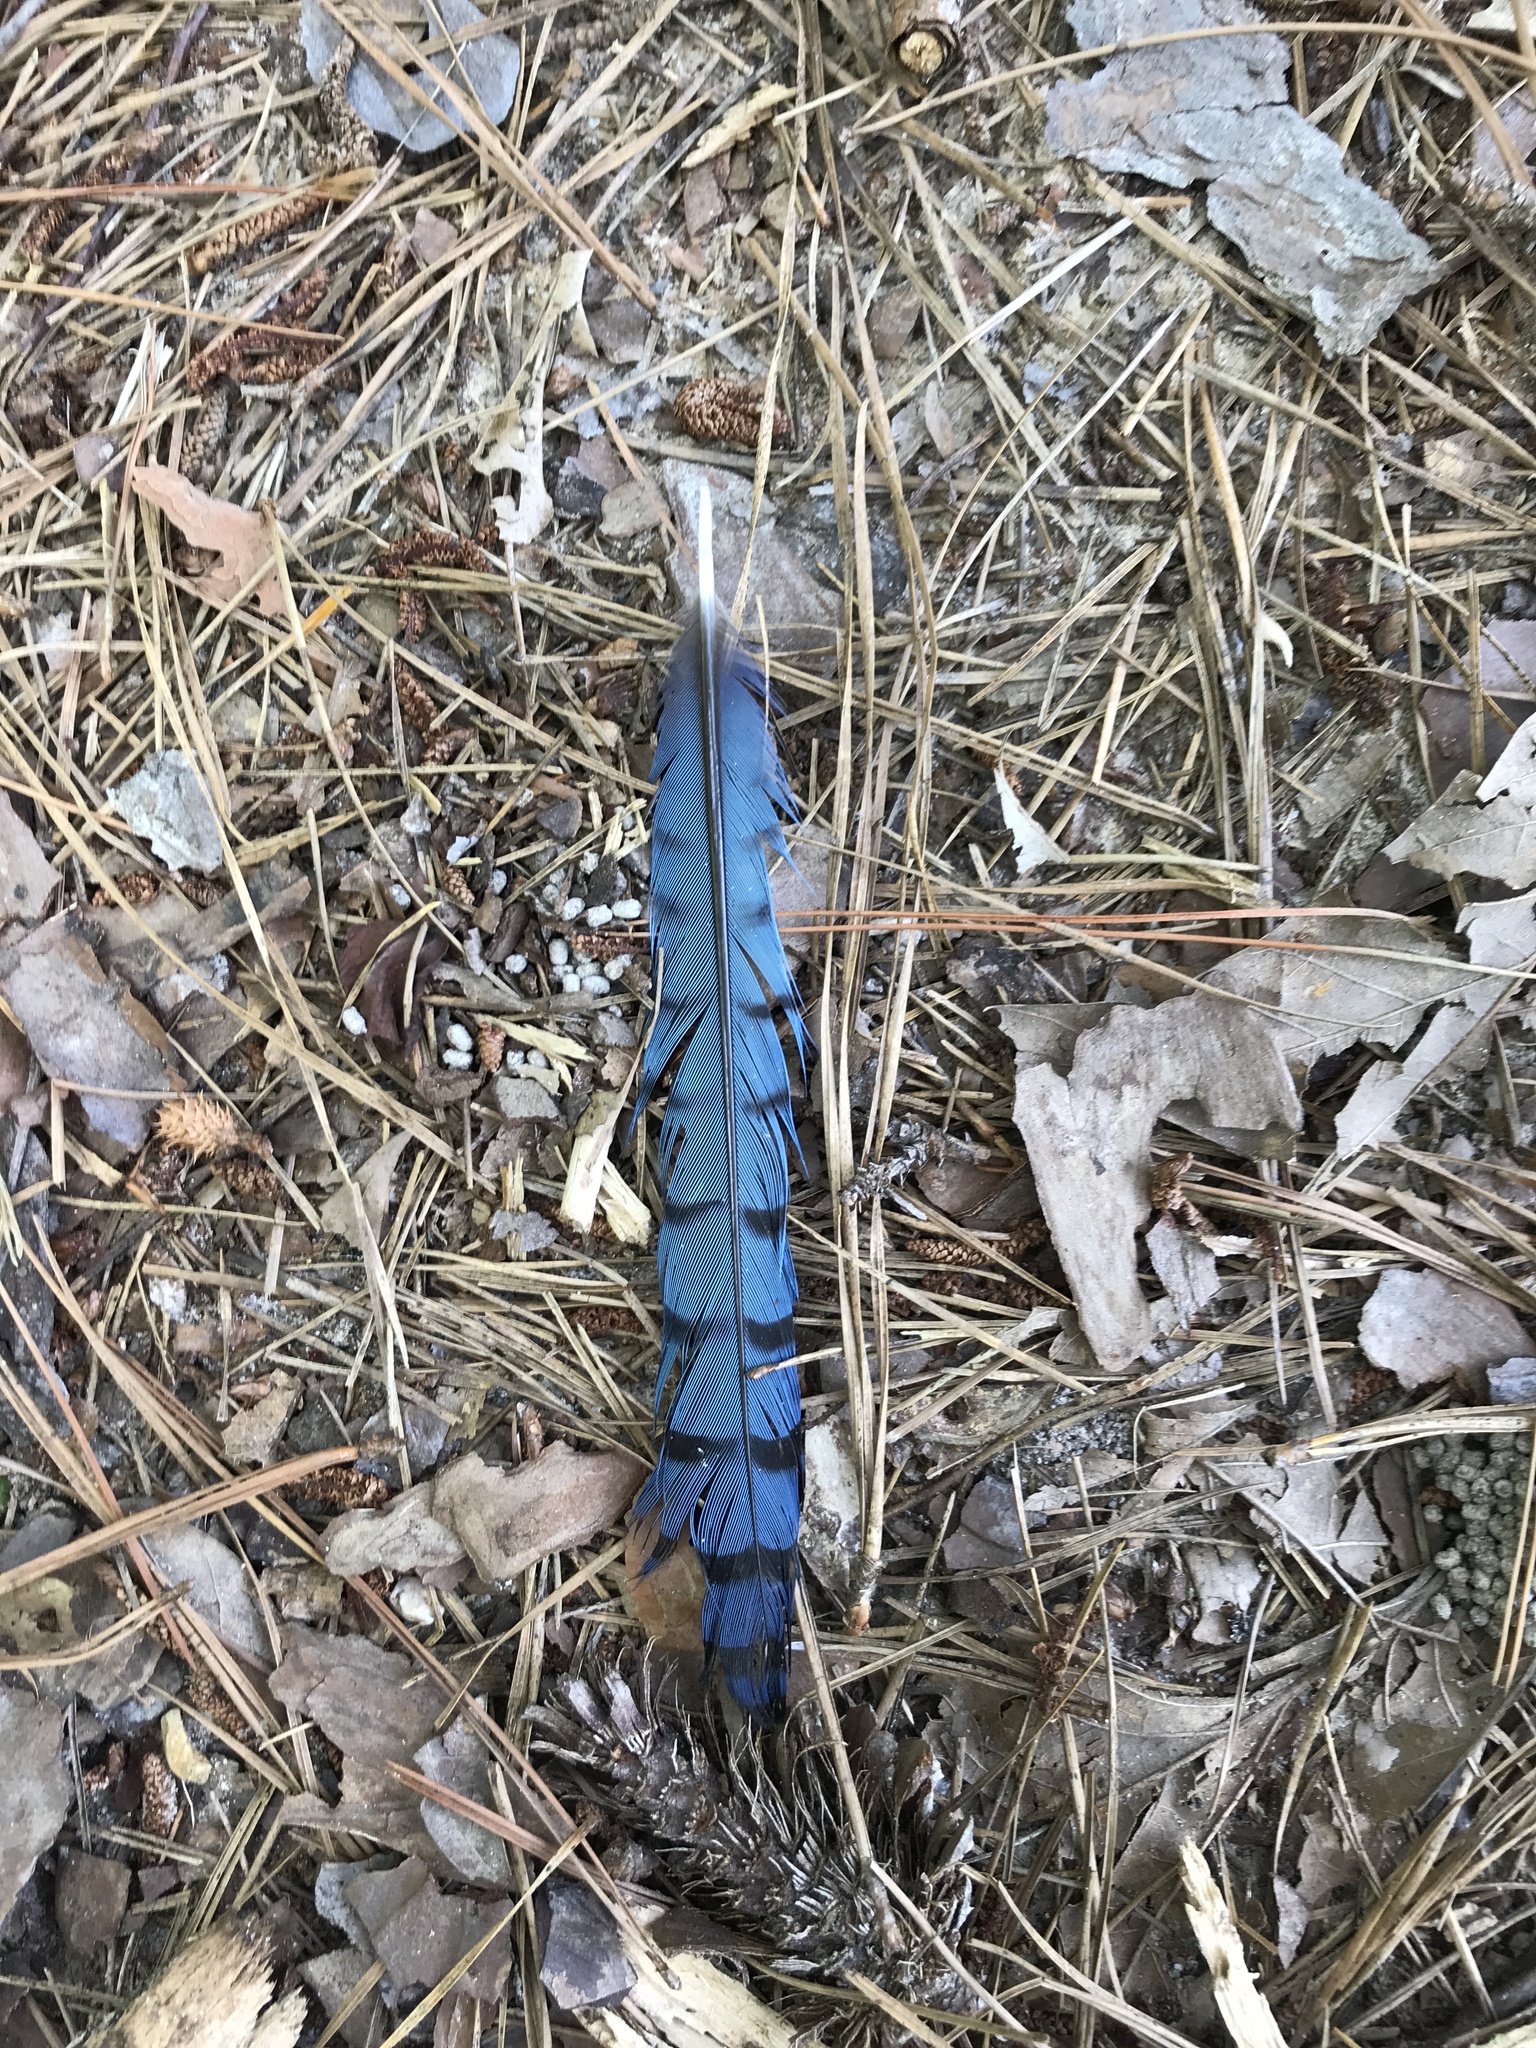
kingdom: Animalia
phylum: Chordata
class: Aves
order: Passeriformes
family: Corvidae
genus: Cyanocitta
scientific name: Cyanocitta cristata
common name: Blue jay
